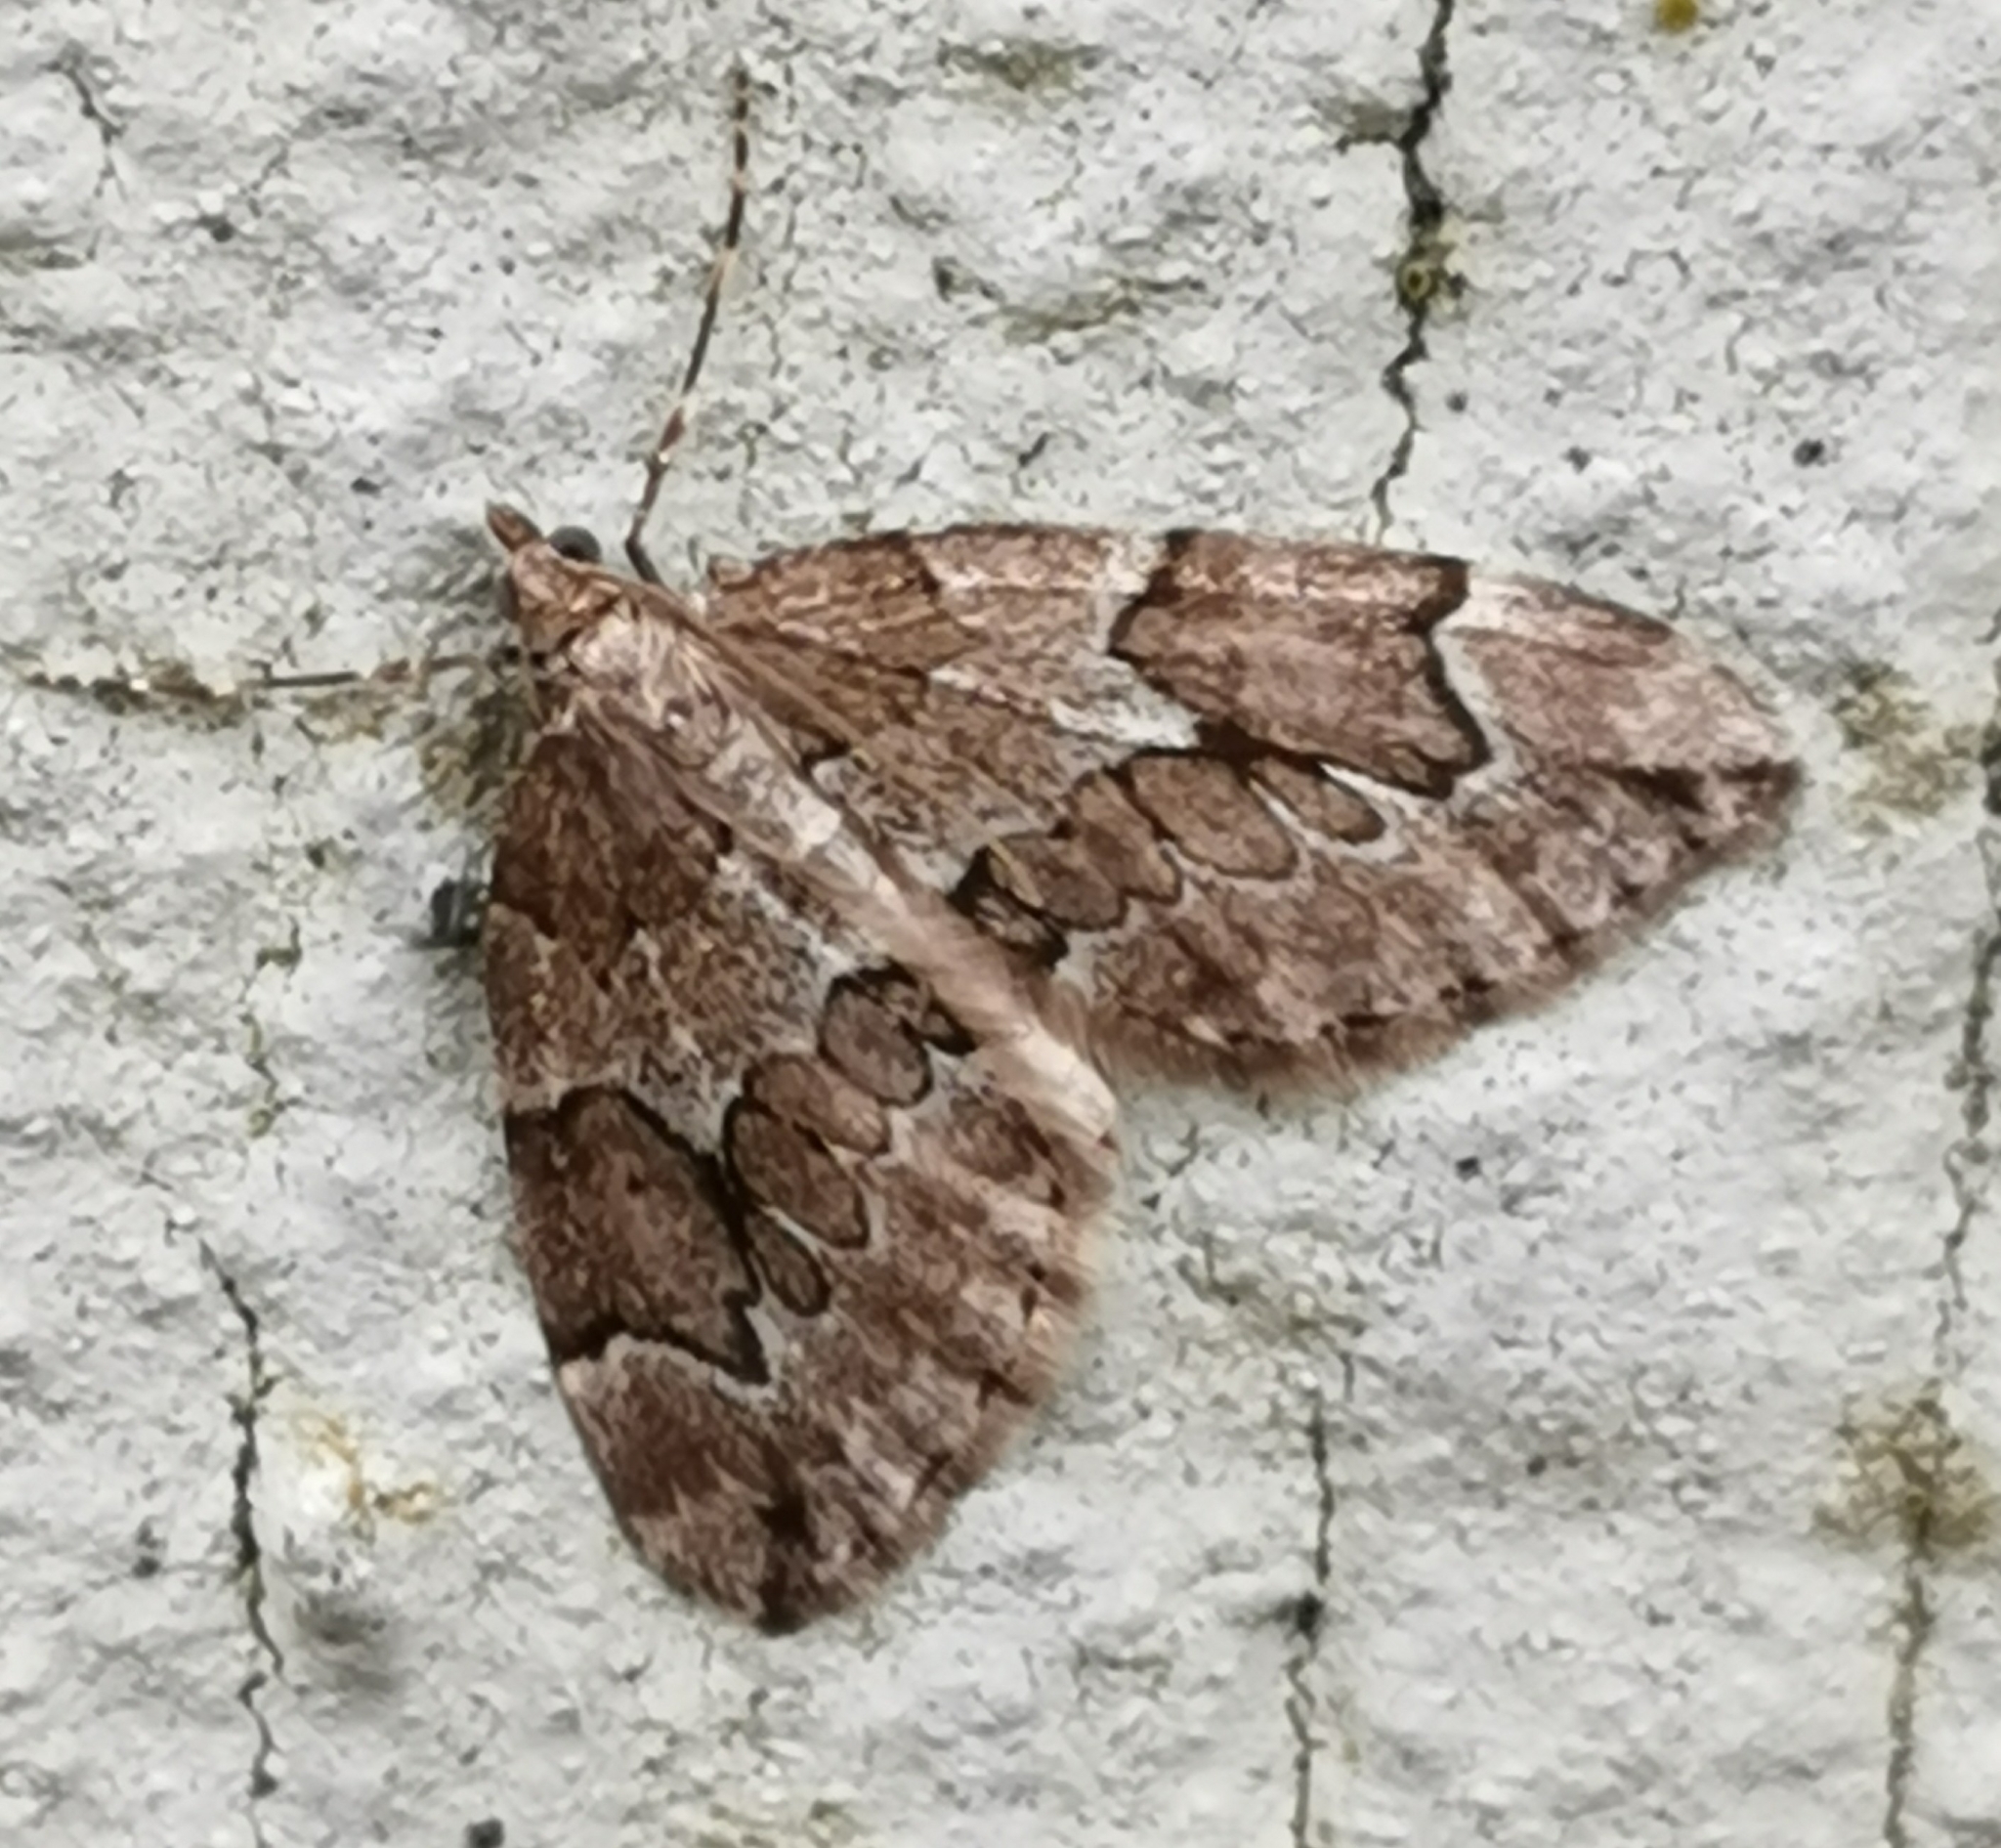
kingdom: Animalia
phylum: Arthropoda
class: Insecta
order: Lepidoptera
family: Geometridae
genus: Thera
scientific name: Thera juniperata
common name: Juniper carpet
